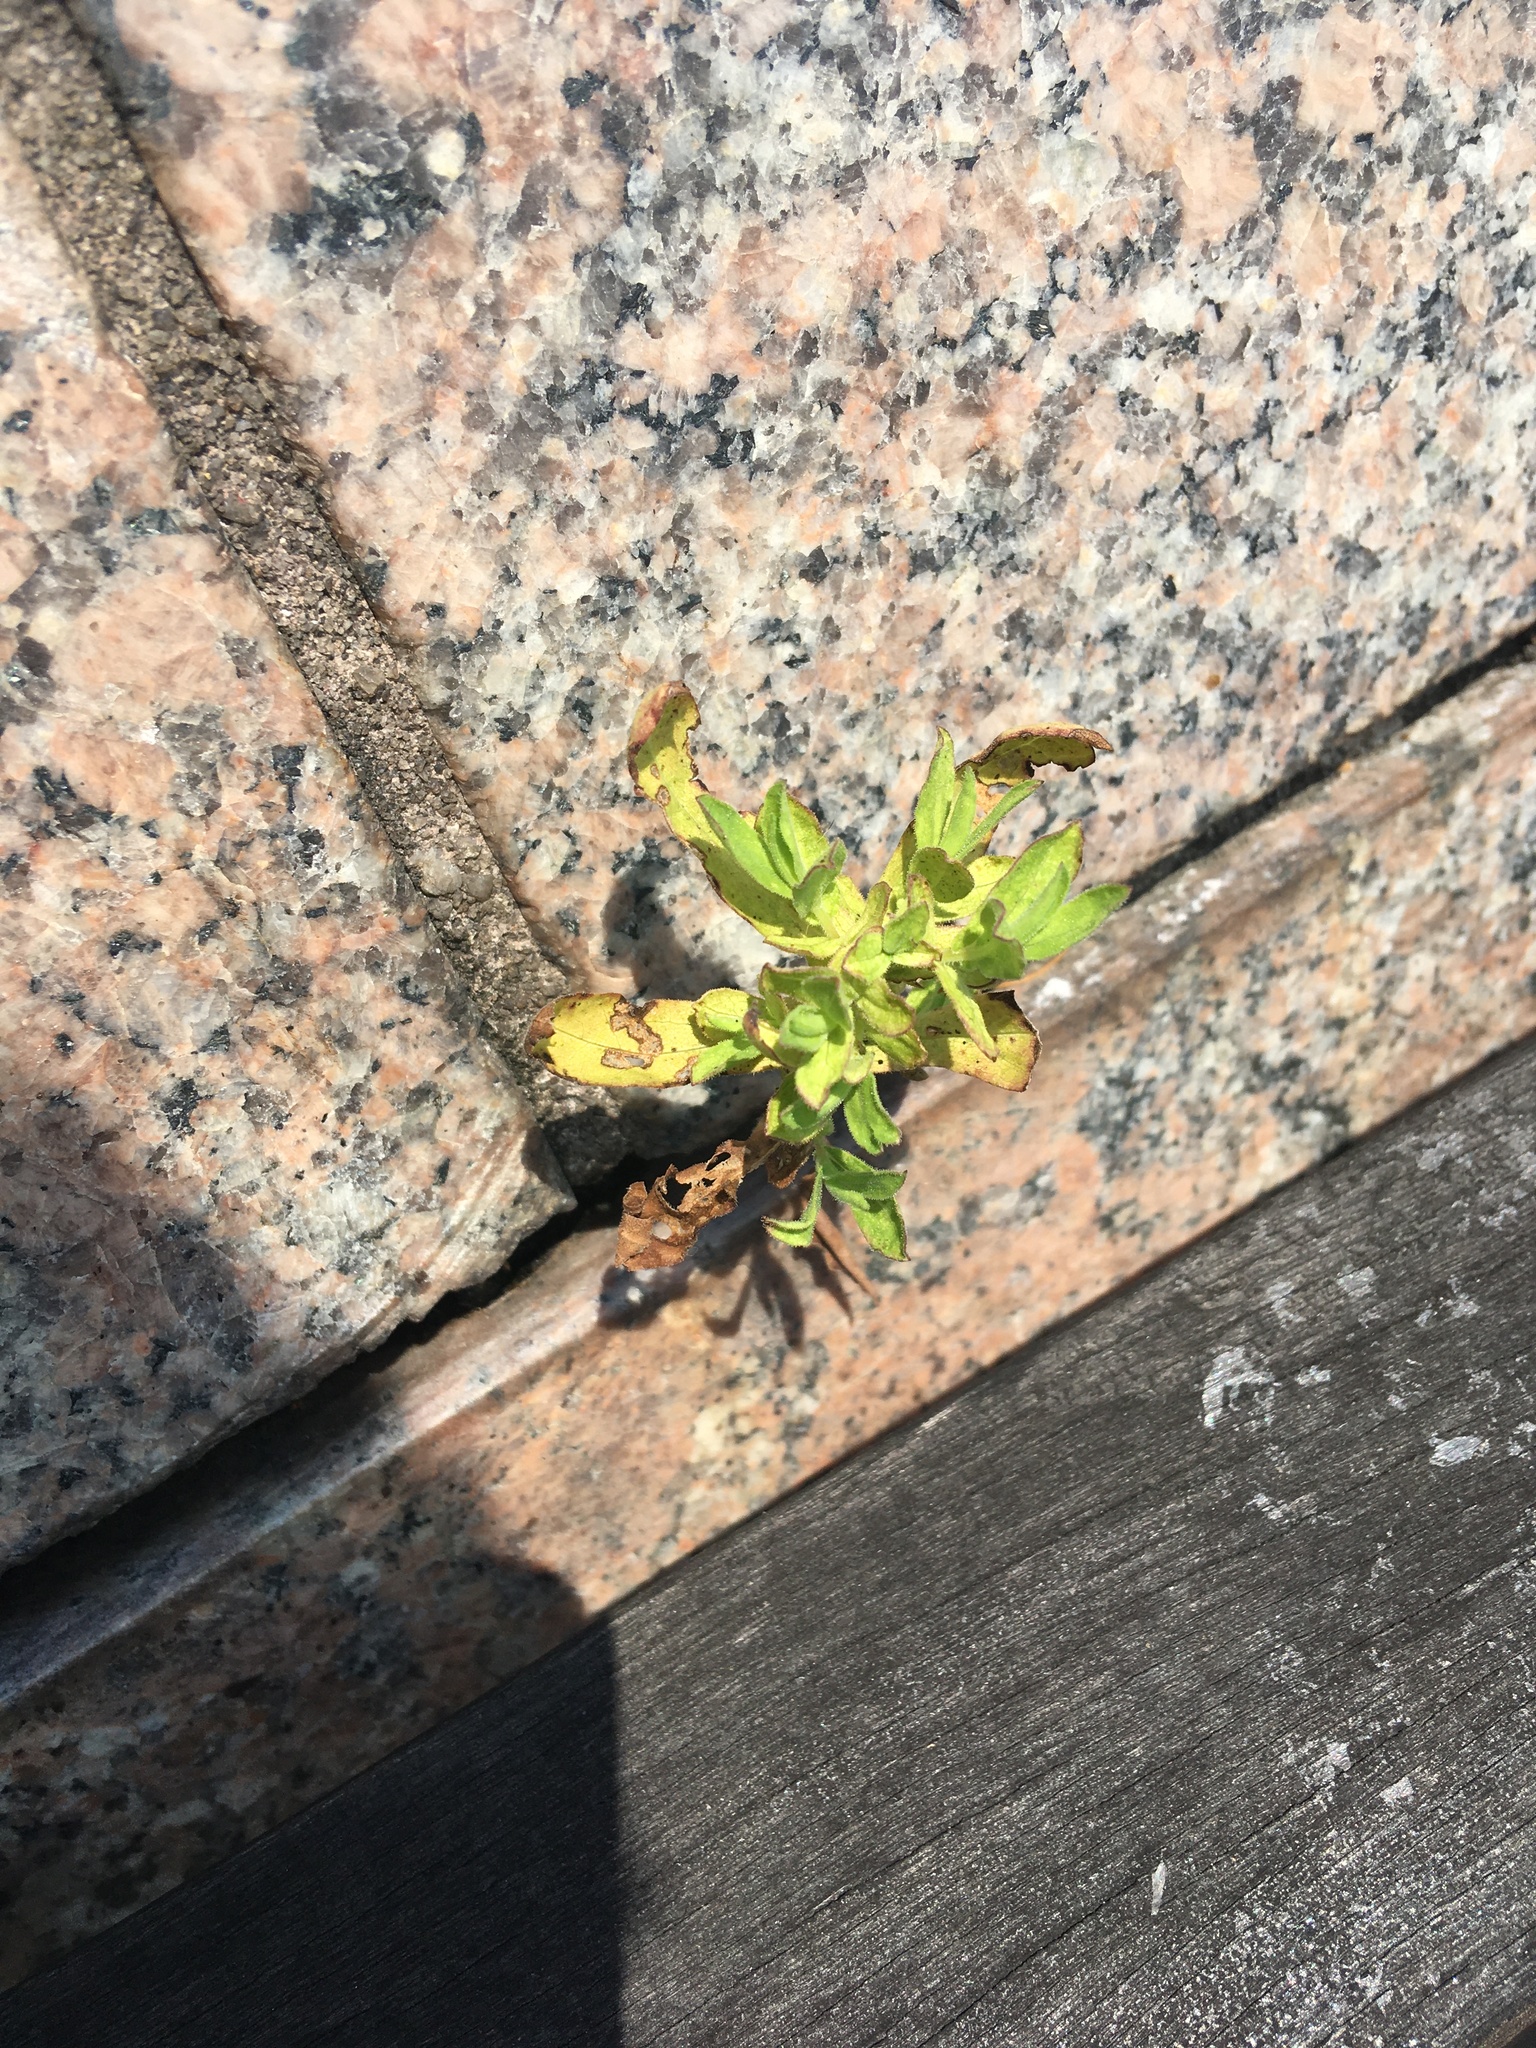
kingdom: Plantae
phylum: Tracheophyta
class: Magnoliopsida
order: Asterales
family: Asteraceae
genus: Artemisia
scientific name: Artemisia vulgaris
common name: Mugwort
